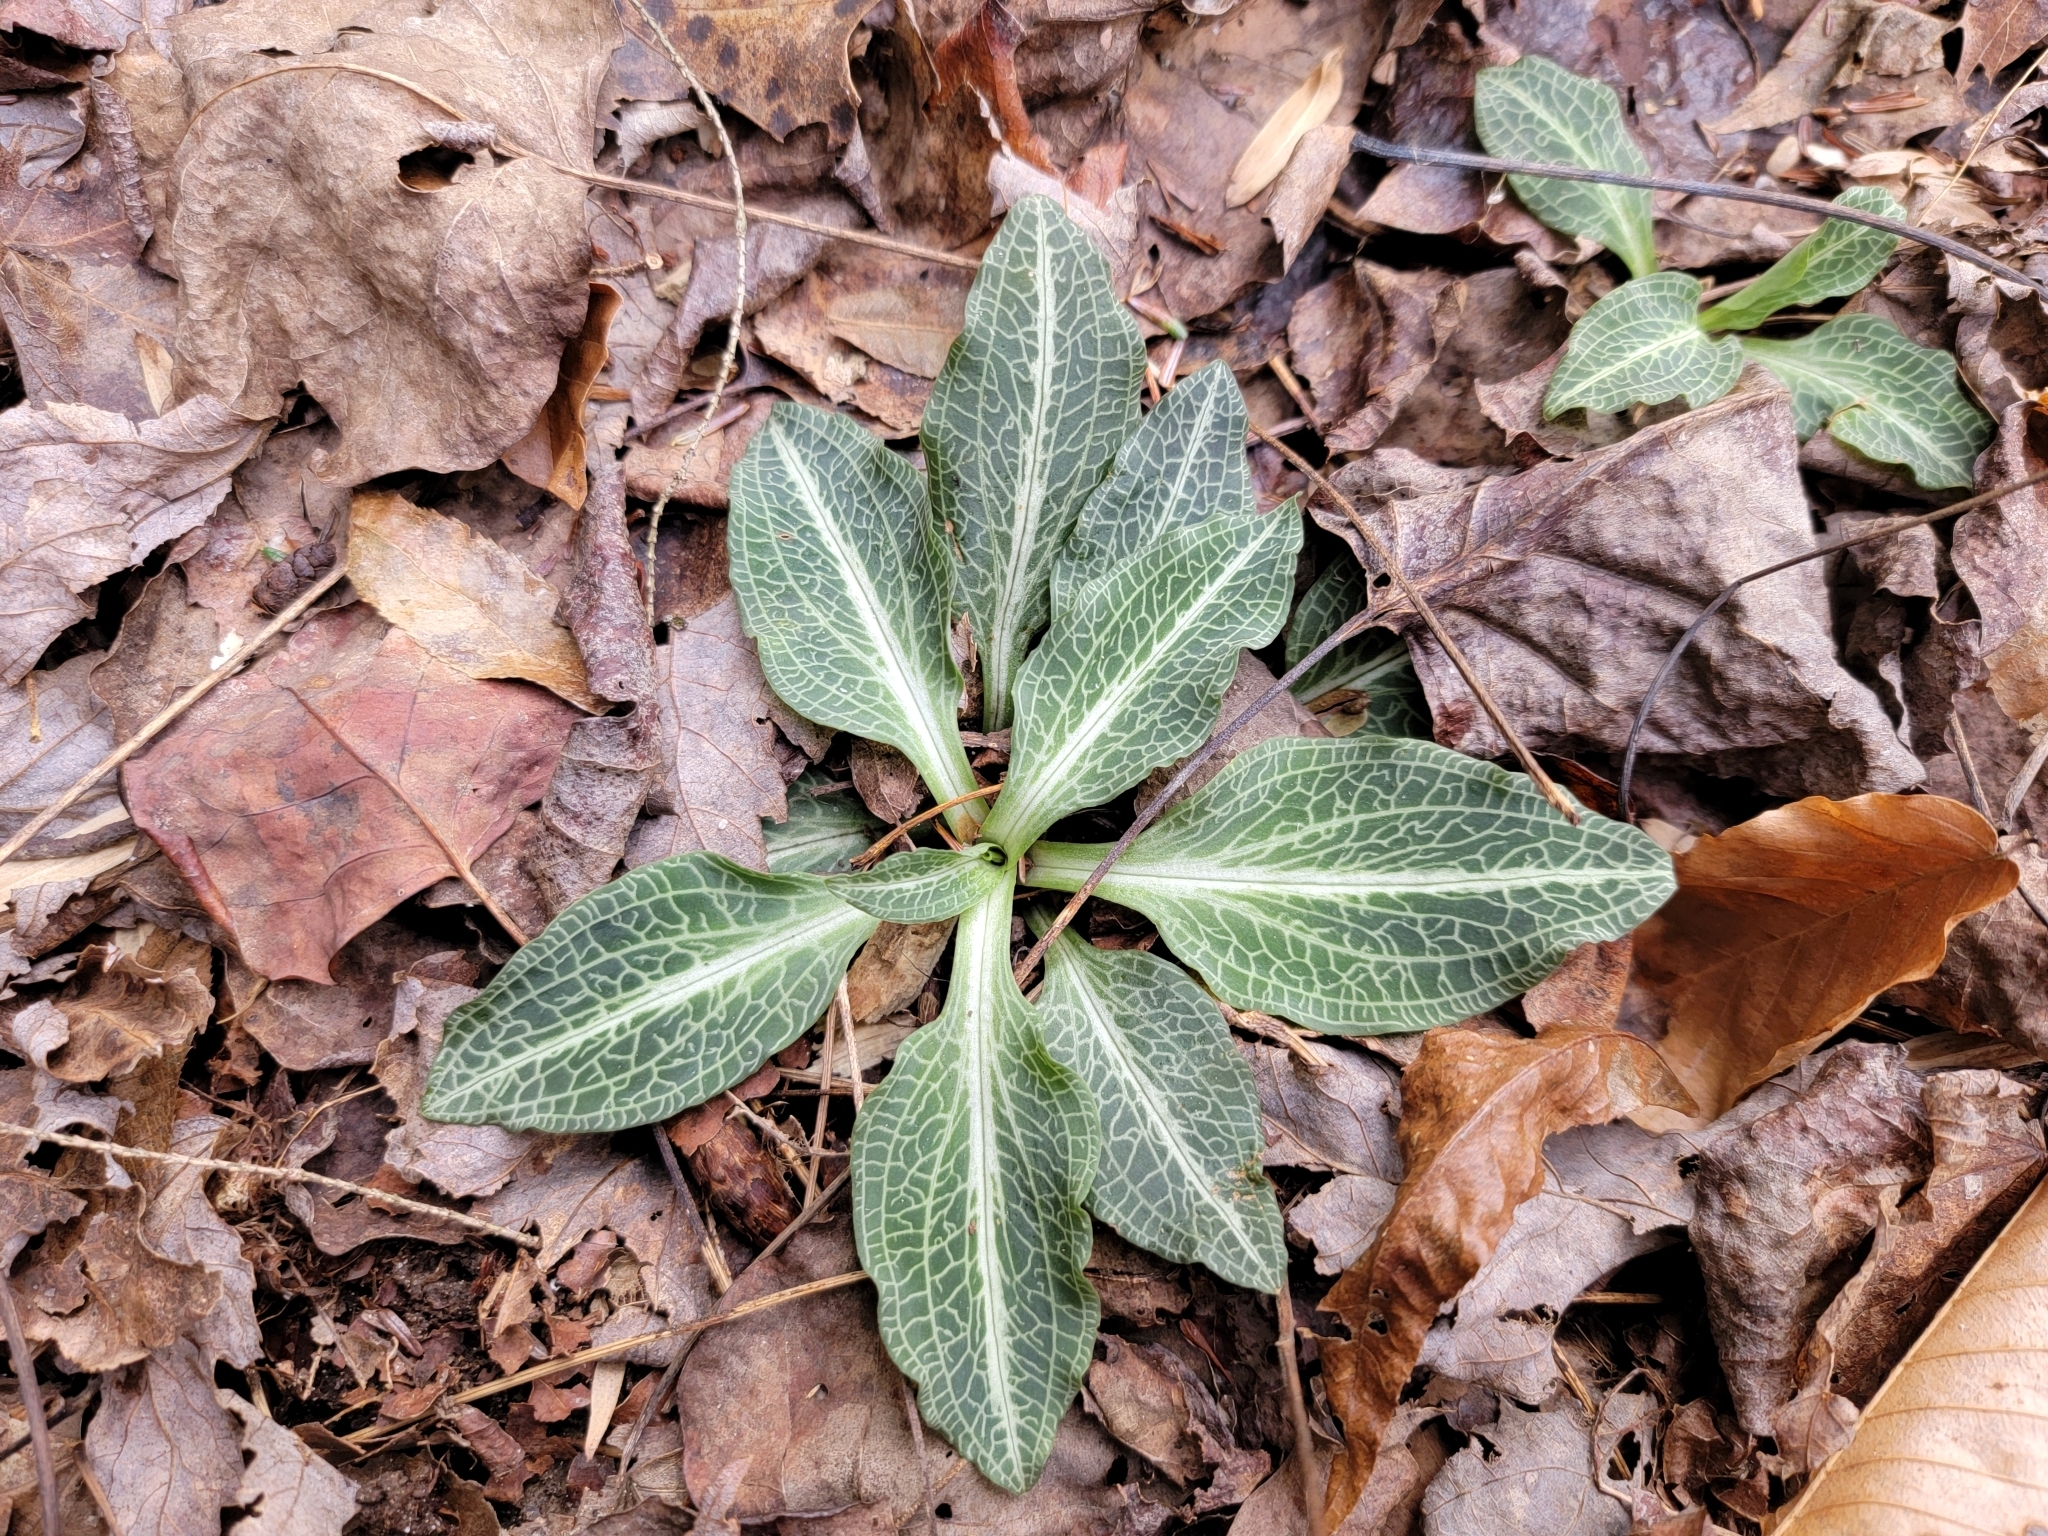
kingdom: Plantae
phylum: Tracheophyta
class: Liliopsida
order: Asparagales
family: Orchidaceae
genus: Goodyera
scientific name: Goodyera pubescens
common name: Downy rattlesnake-plantain
